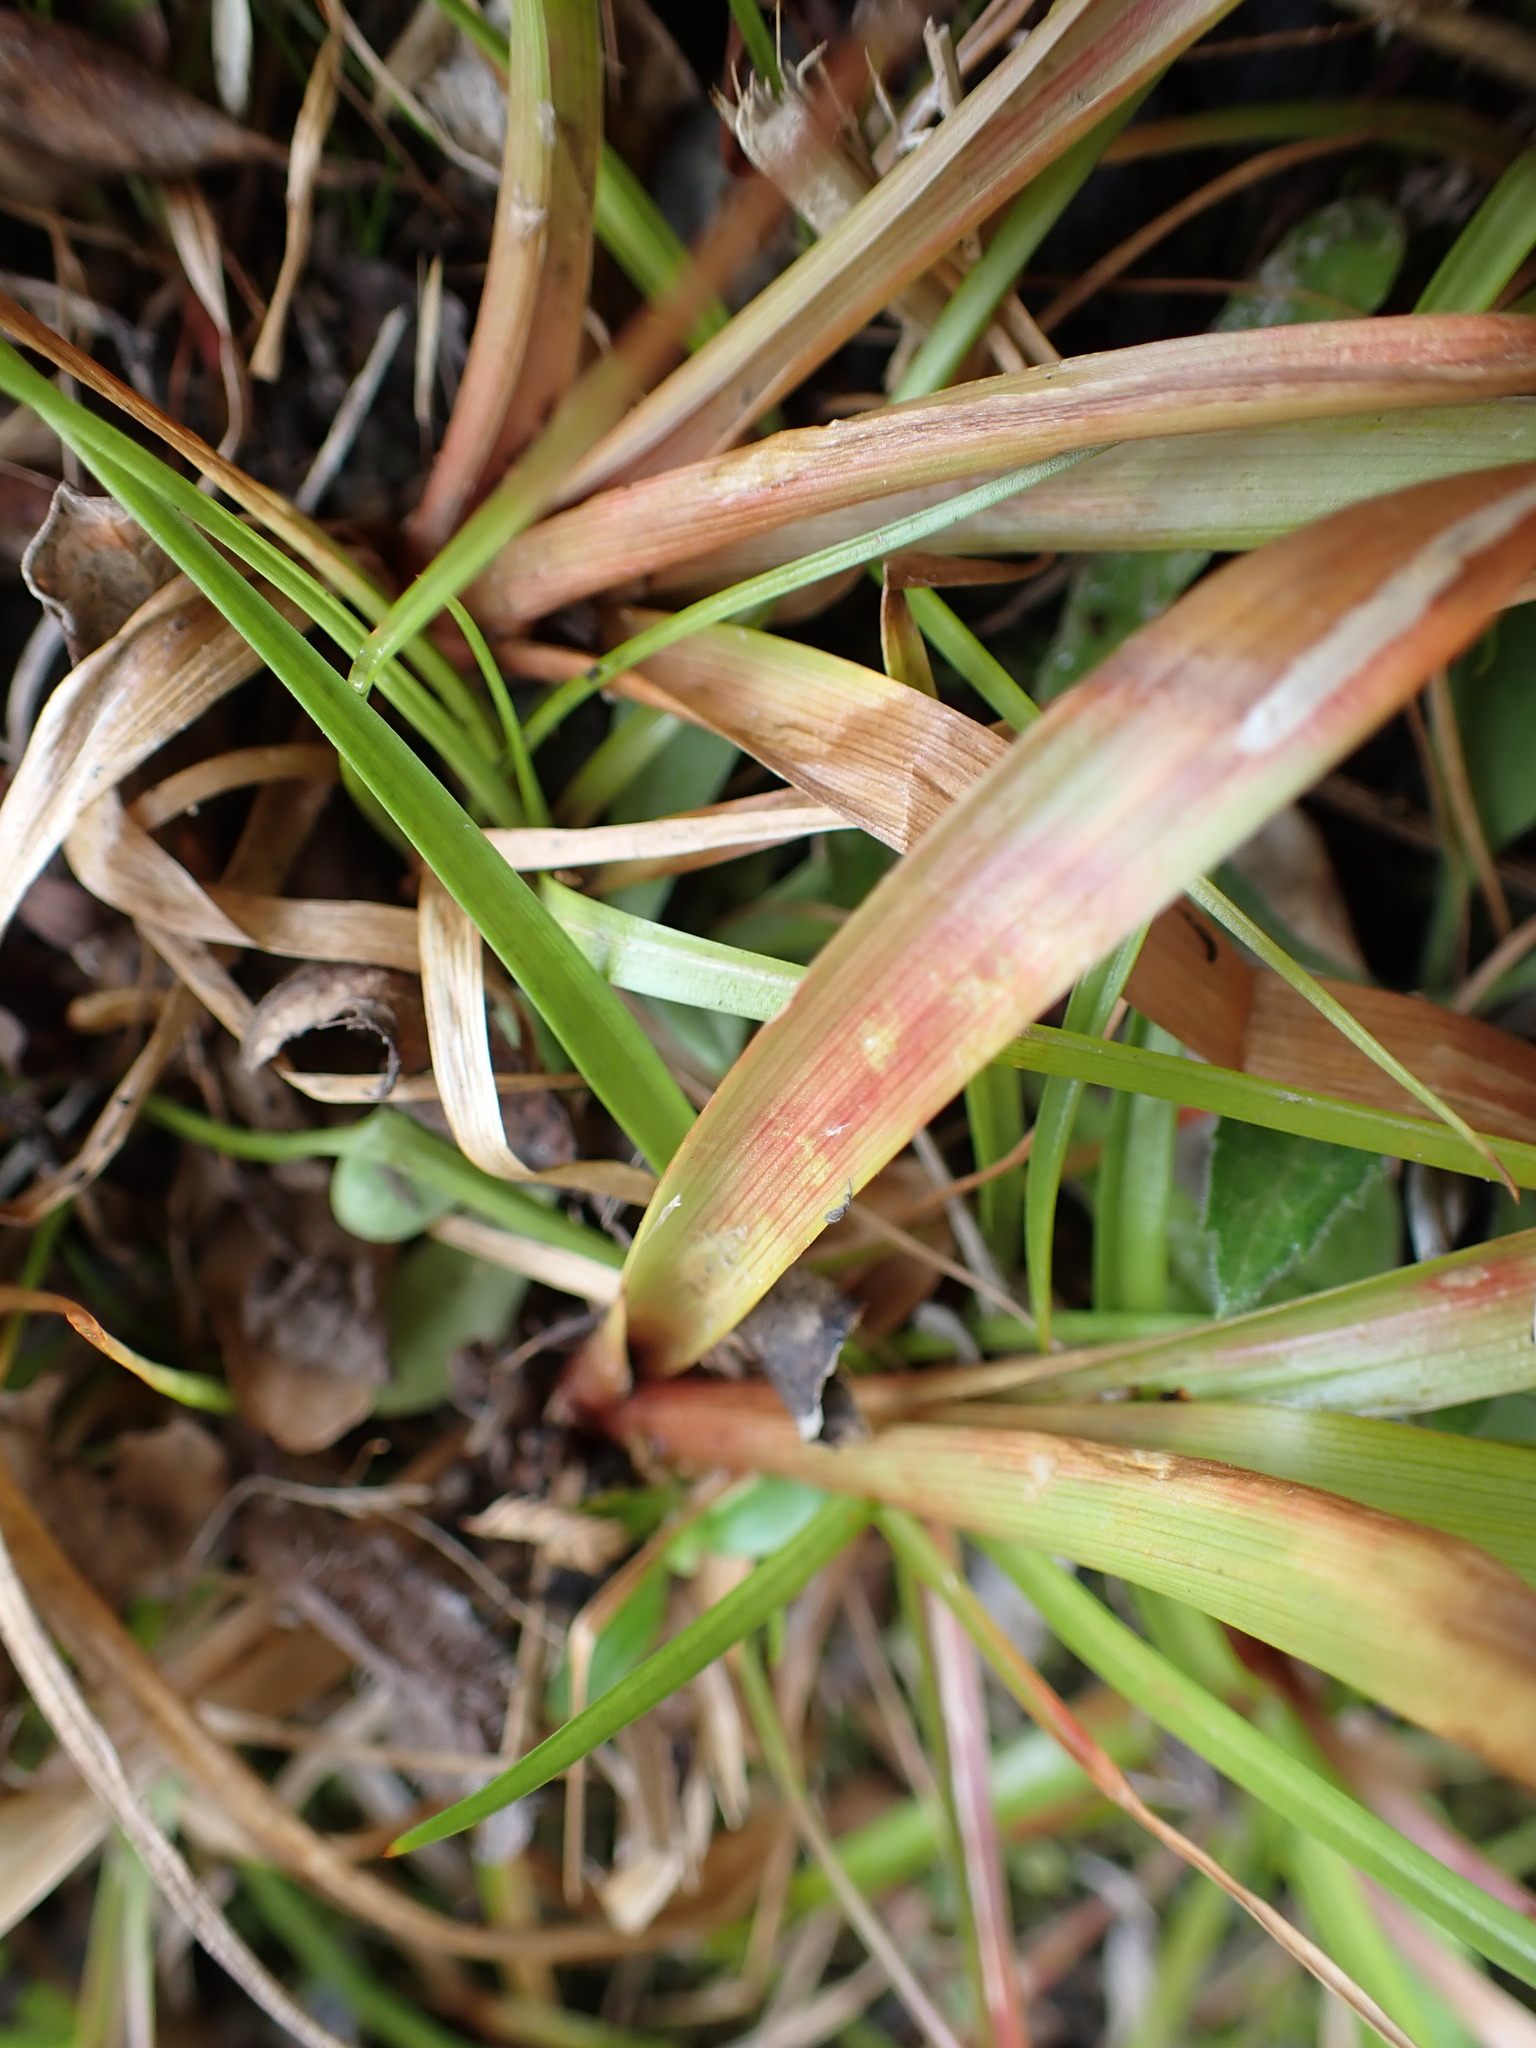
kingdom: Plantae
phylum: Tracheophyta
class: Liliopsida
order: Poales
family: Juncaceae
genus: Juncus
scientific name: Juncus planifolius
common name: Broadleaf rush
